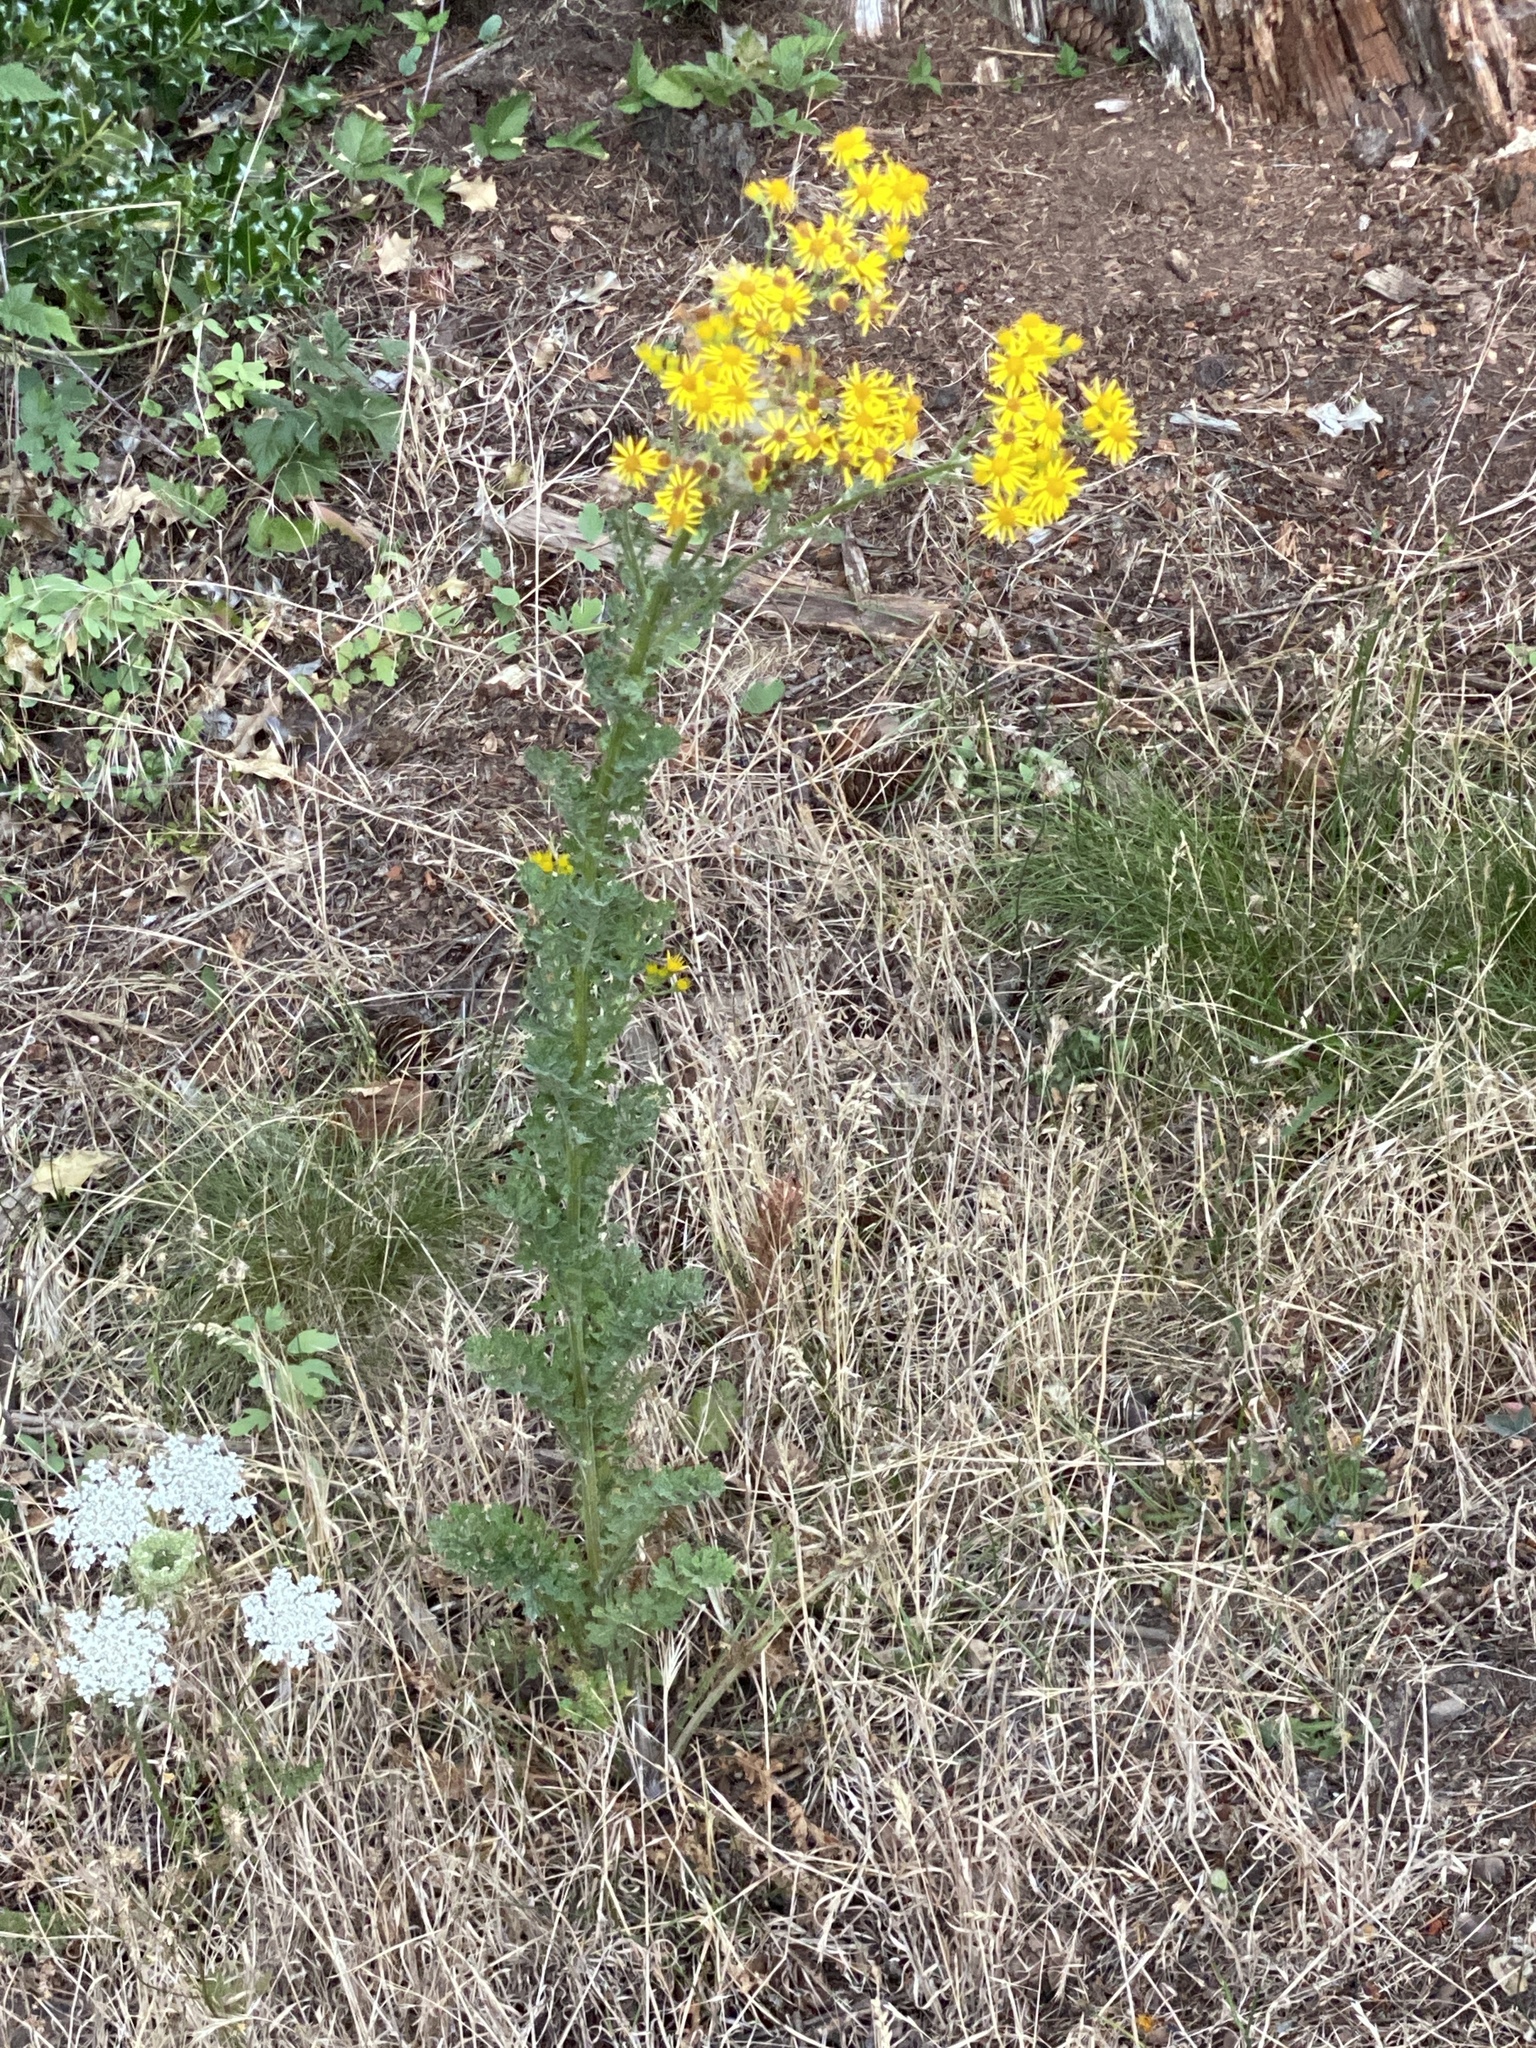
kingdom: Plantae
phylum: Tracheophyta
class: Magnoliopsida
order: Asterales
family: Asteraceae
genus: Jacobaea
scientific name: Jacobaea vulgaris
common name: Stinking willie
